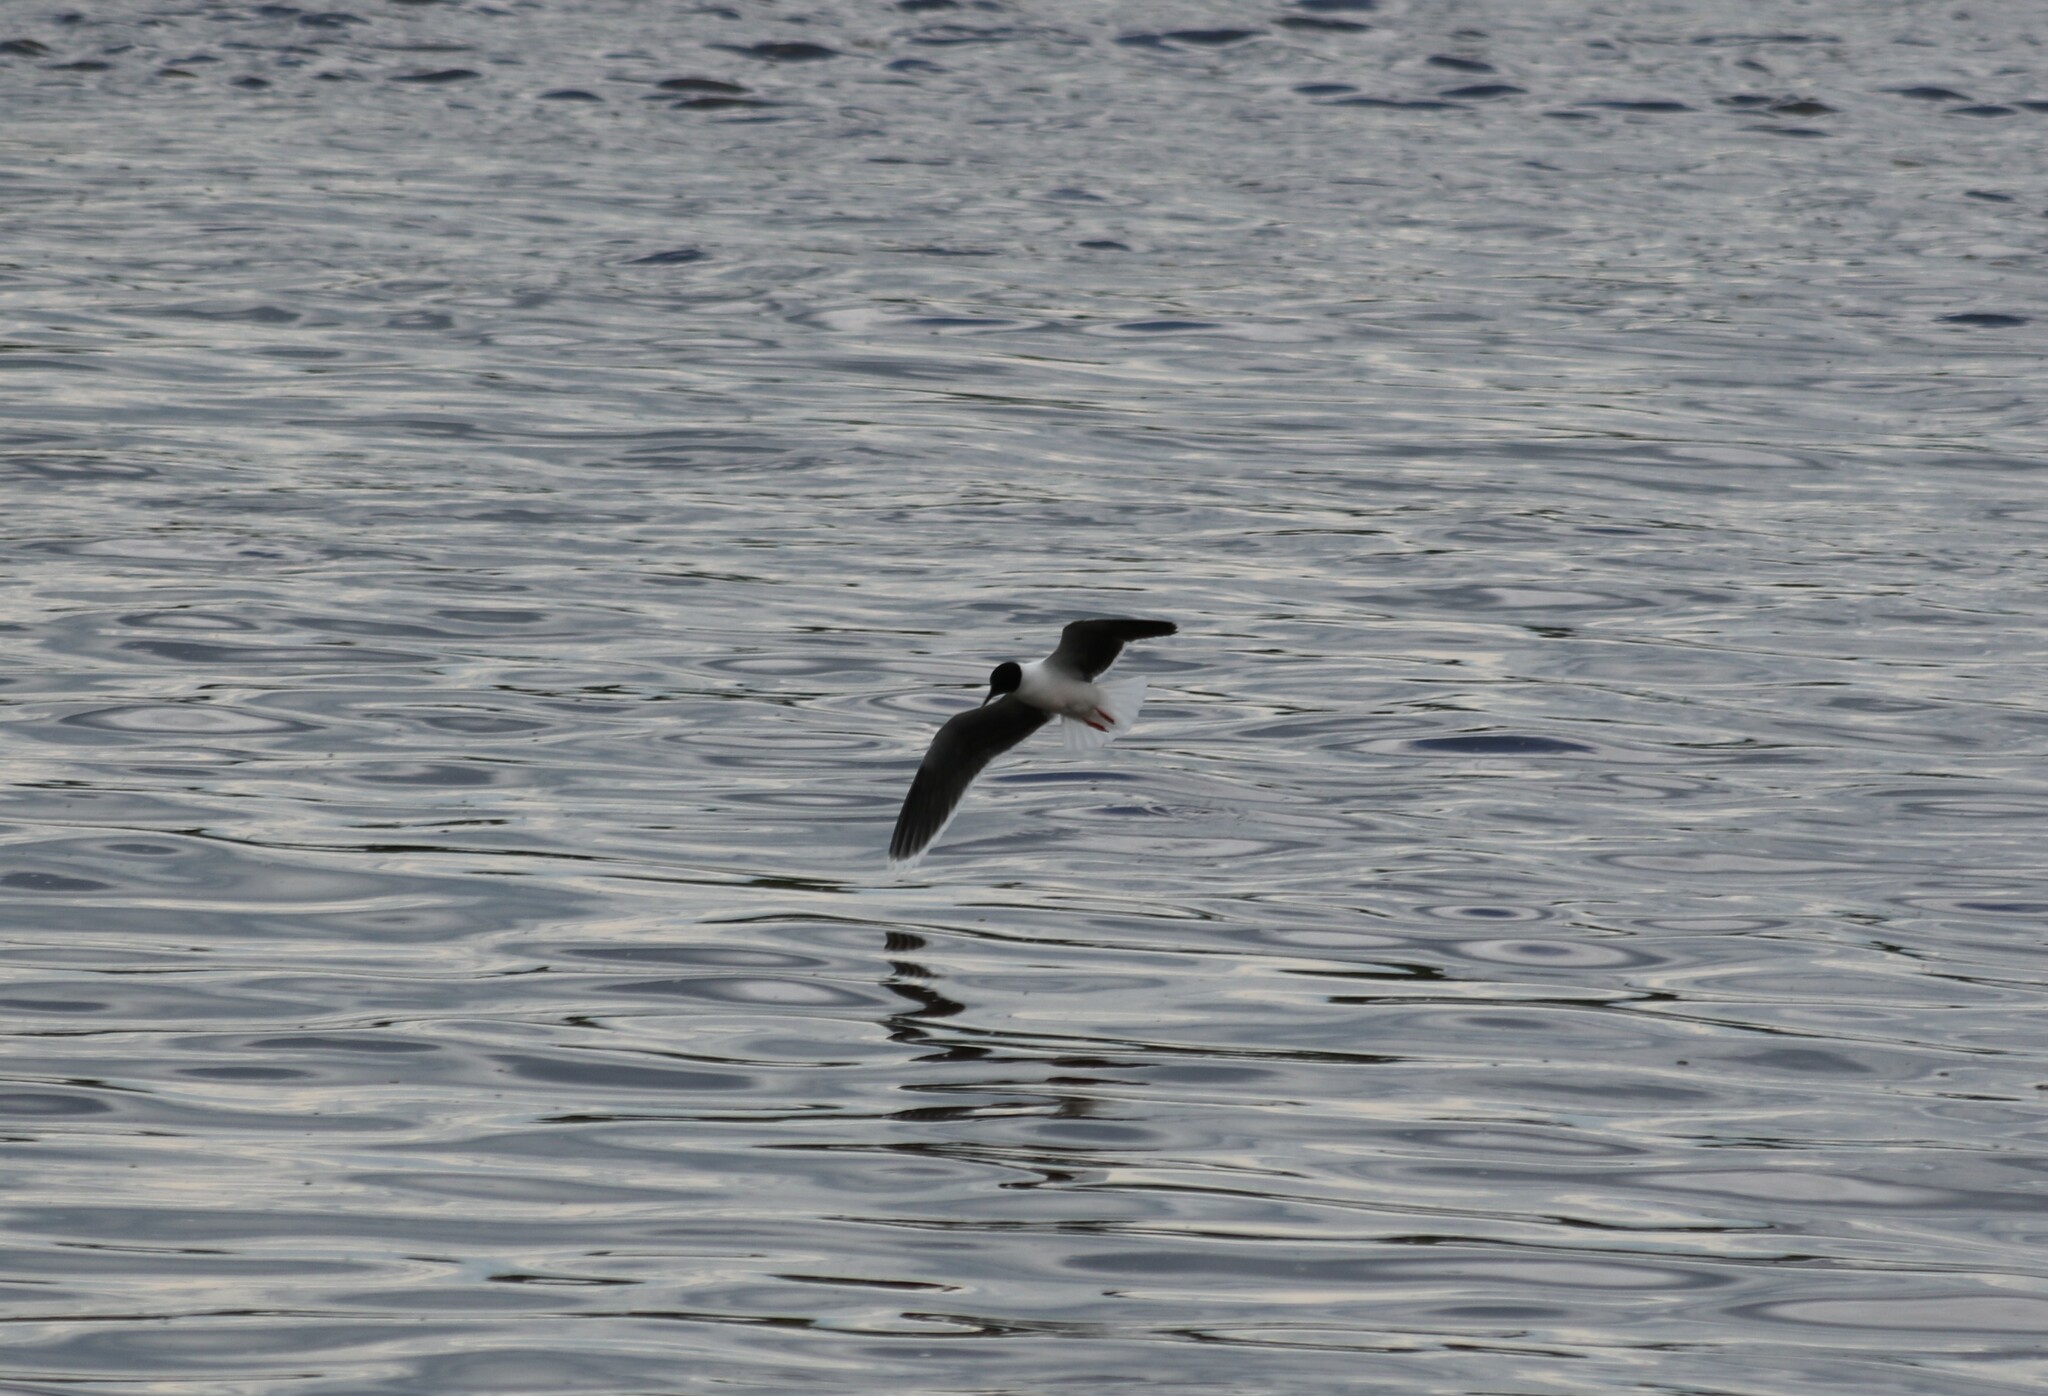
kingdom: Animalia
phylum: Chordata
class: Aves
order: Charadriiformes
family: Laridae
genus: Hydrocoloeus
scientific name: Hydrocoloeus minutus
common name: Little gull
